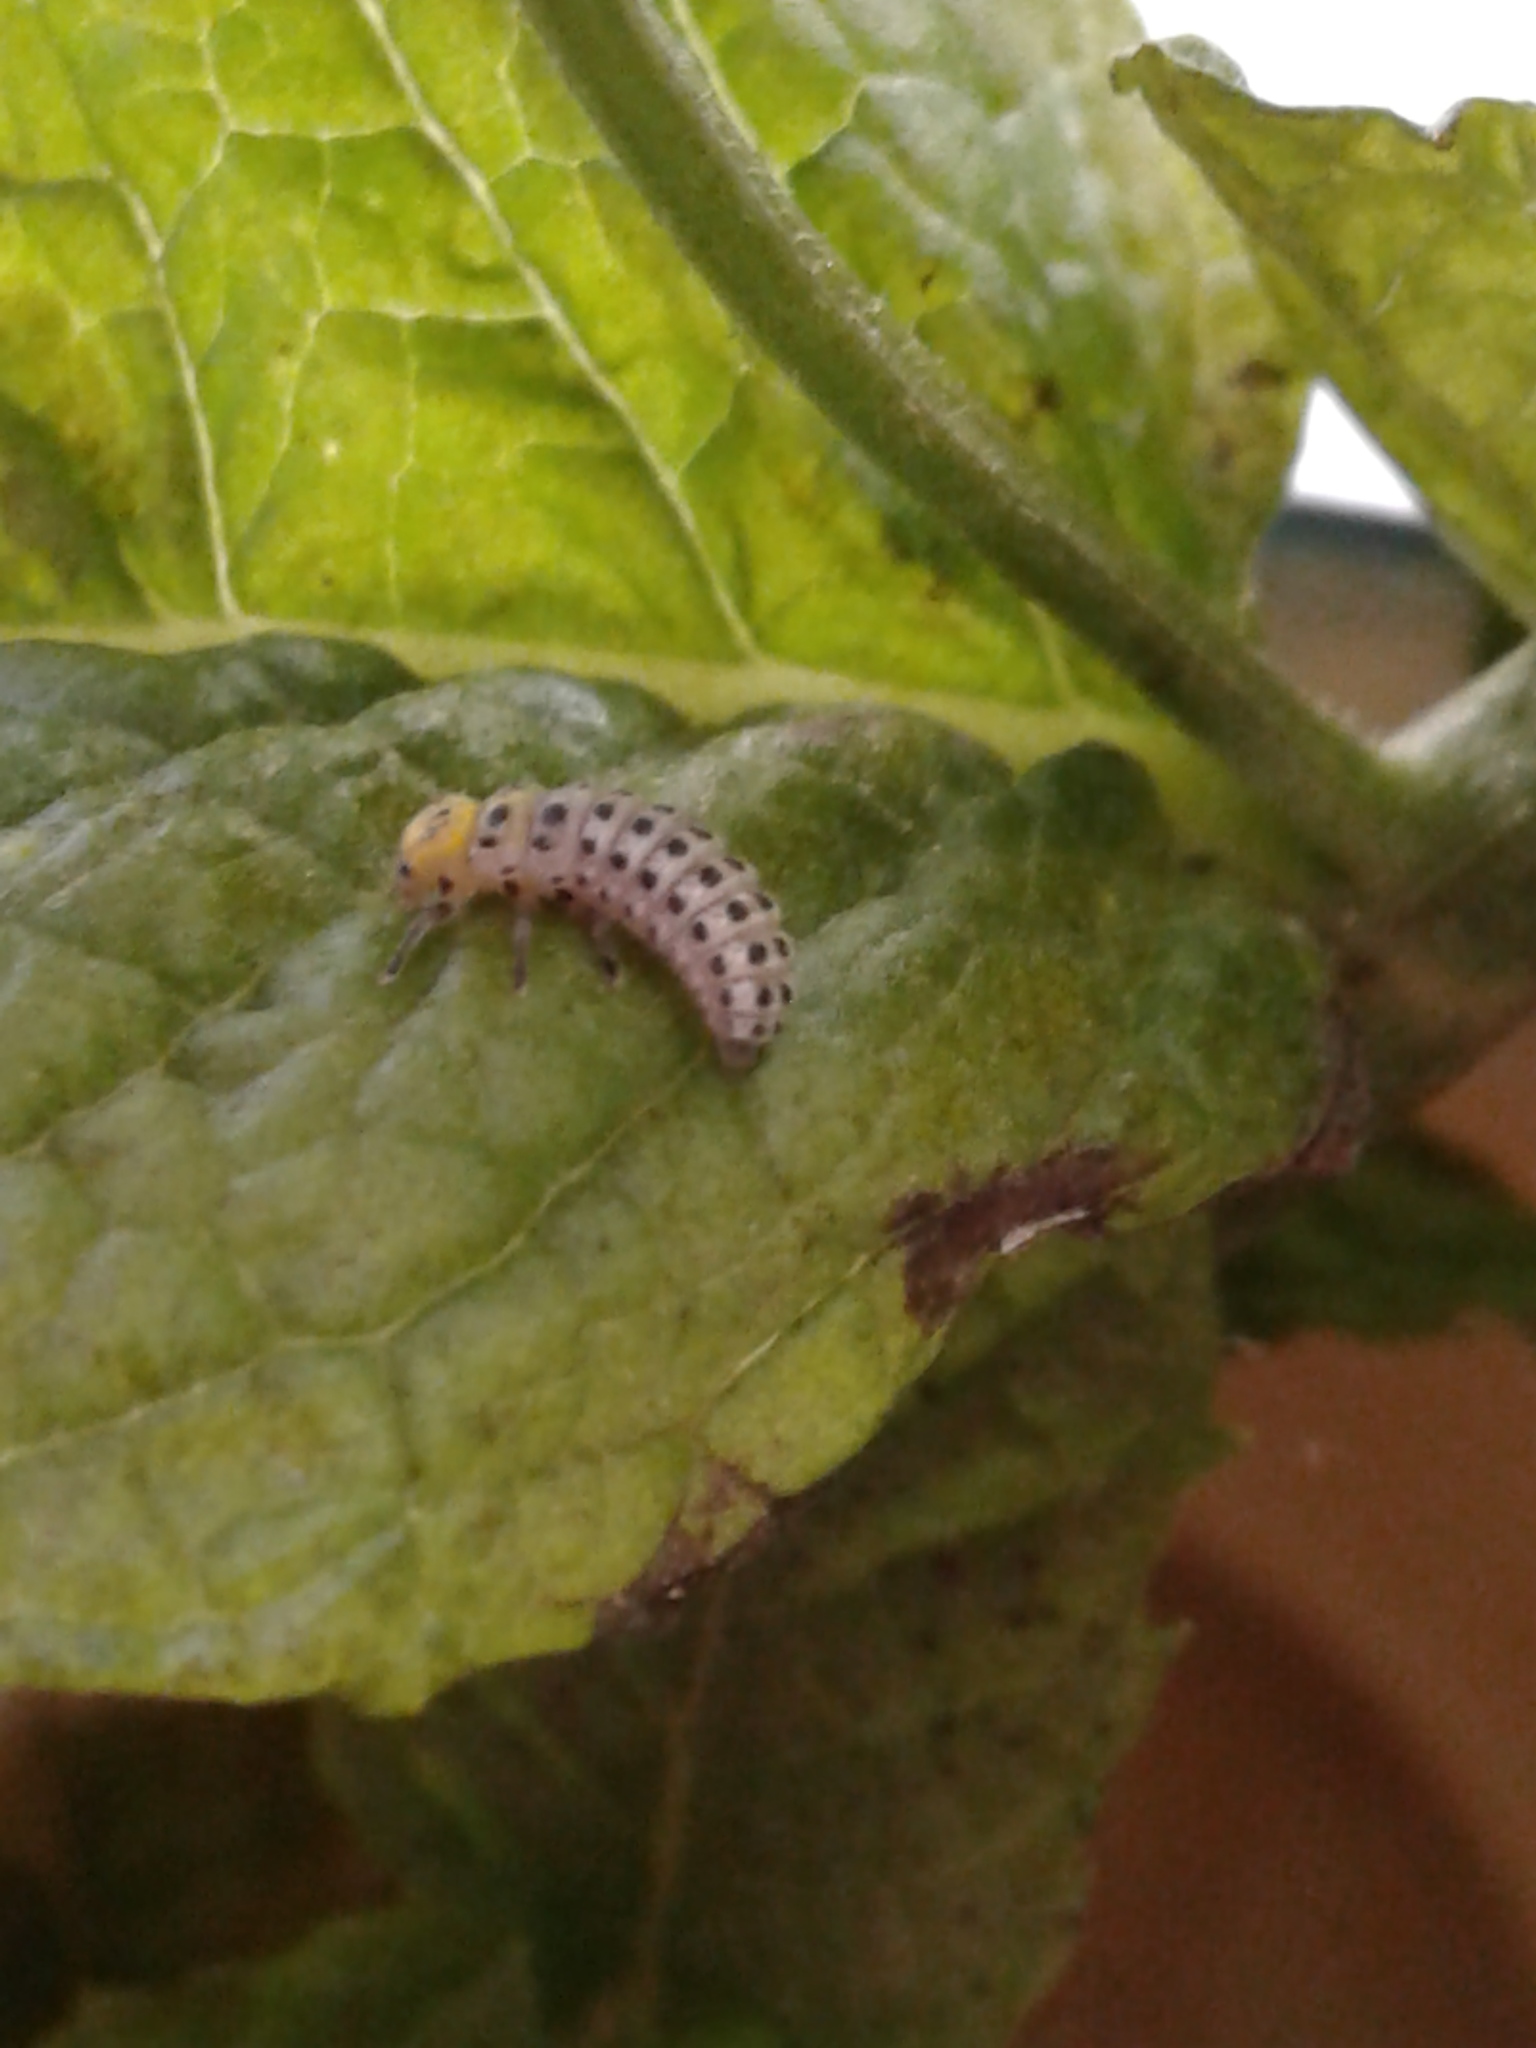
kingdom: Animalia
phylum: Arthropoda
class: Insecta
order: Coleoptera
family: Coccinellidae
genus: Illeis
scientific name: Illeis galbula
